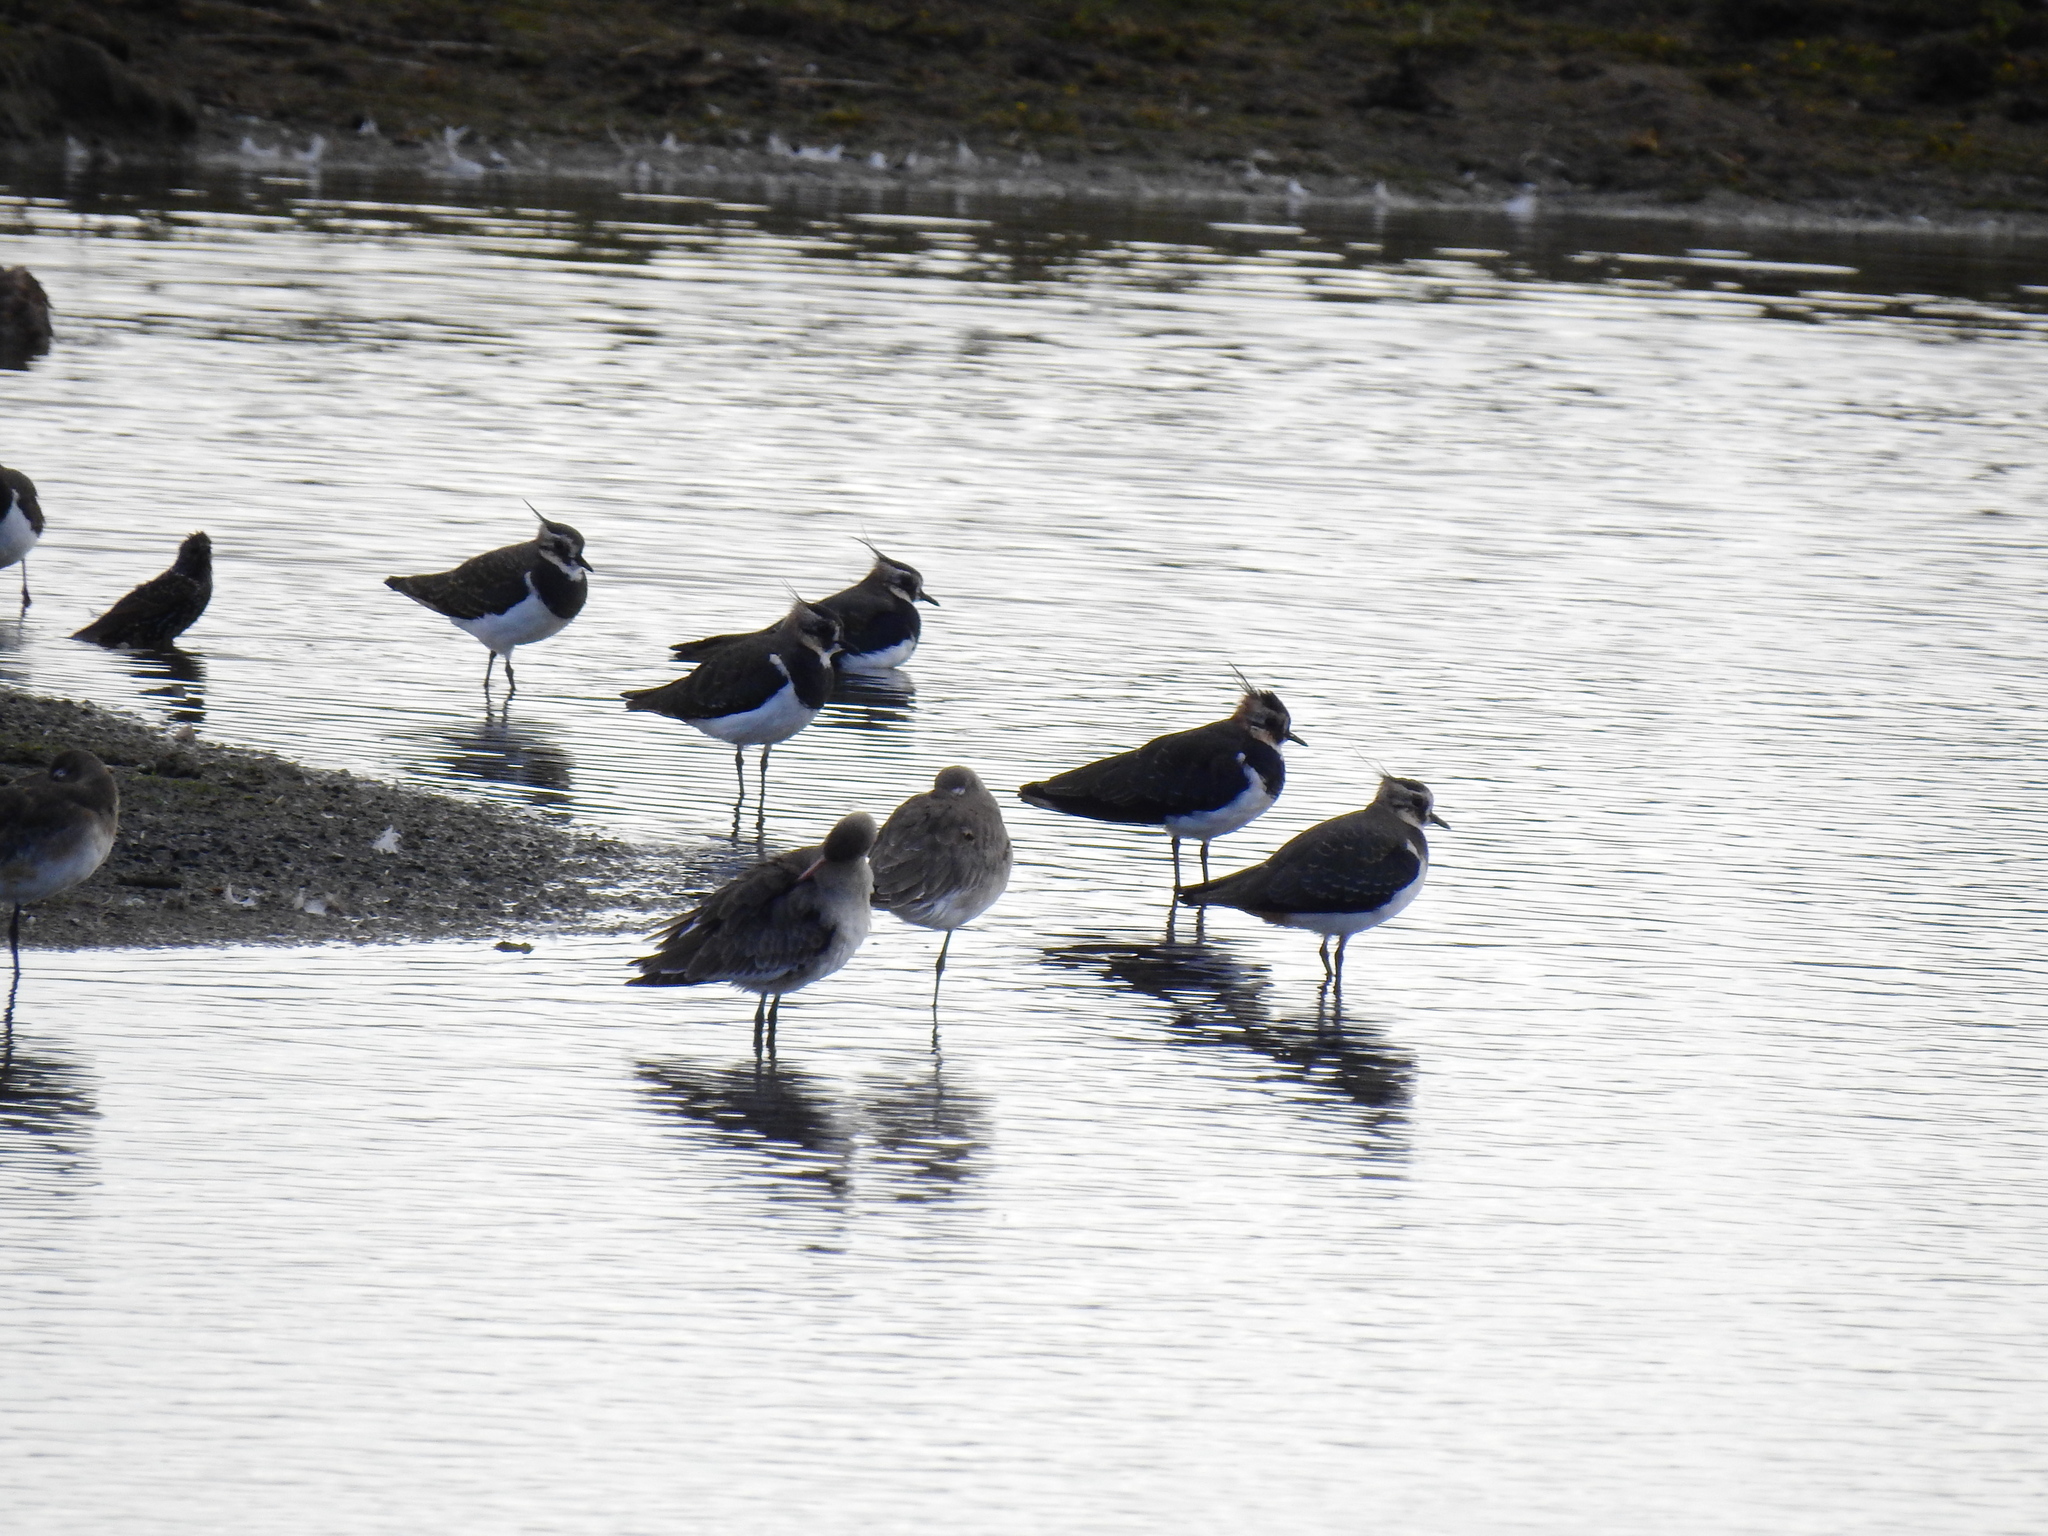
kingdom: Animalia
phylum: Chordata
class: Aves
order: Charadriiformes
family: Charadriidae
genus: Vanellus
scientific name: Vanellus vanellus
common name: Northern lapwing
